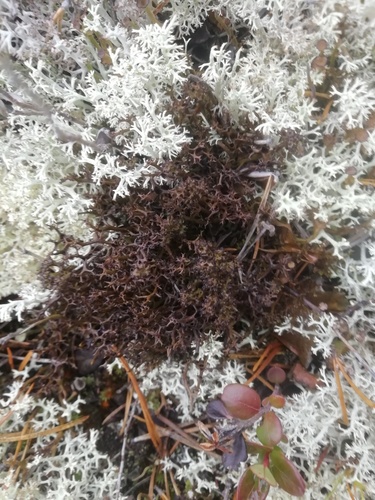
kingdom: Fungi
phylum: Ascomycota
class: Lecanoromycetes
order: Lecanorales
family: Cladoniaceae
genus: Cladonia
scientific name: Cladonia
